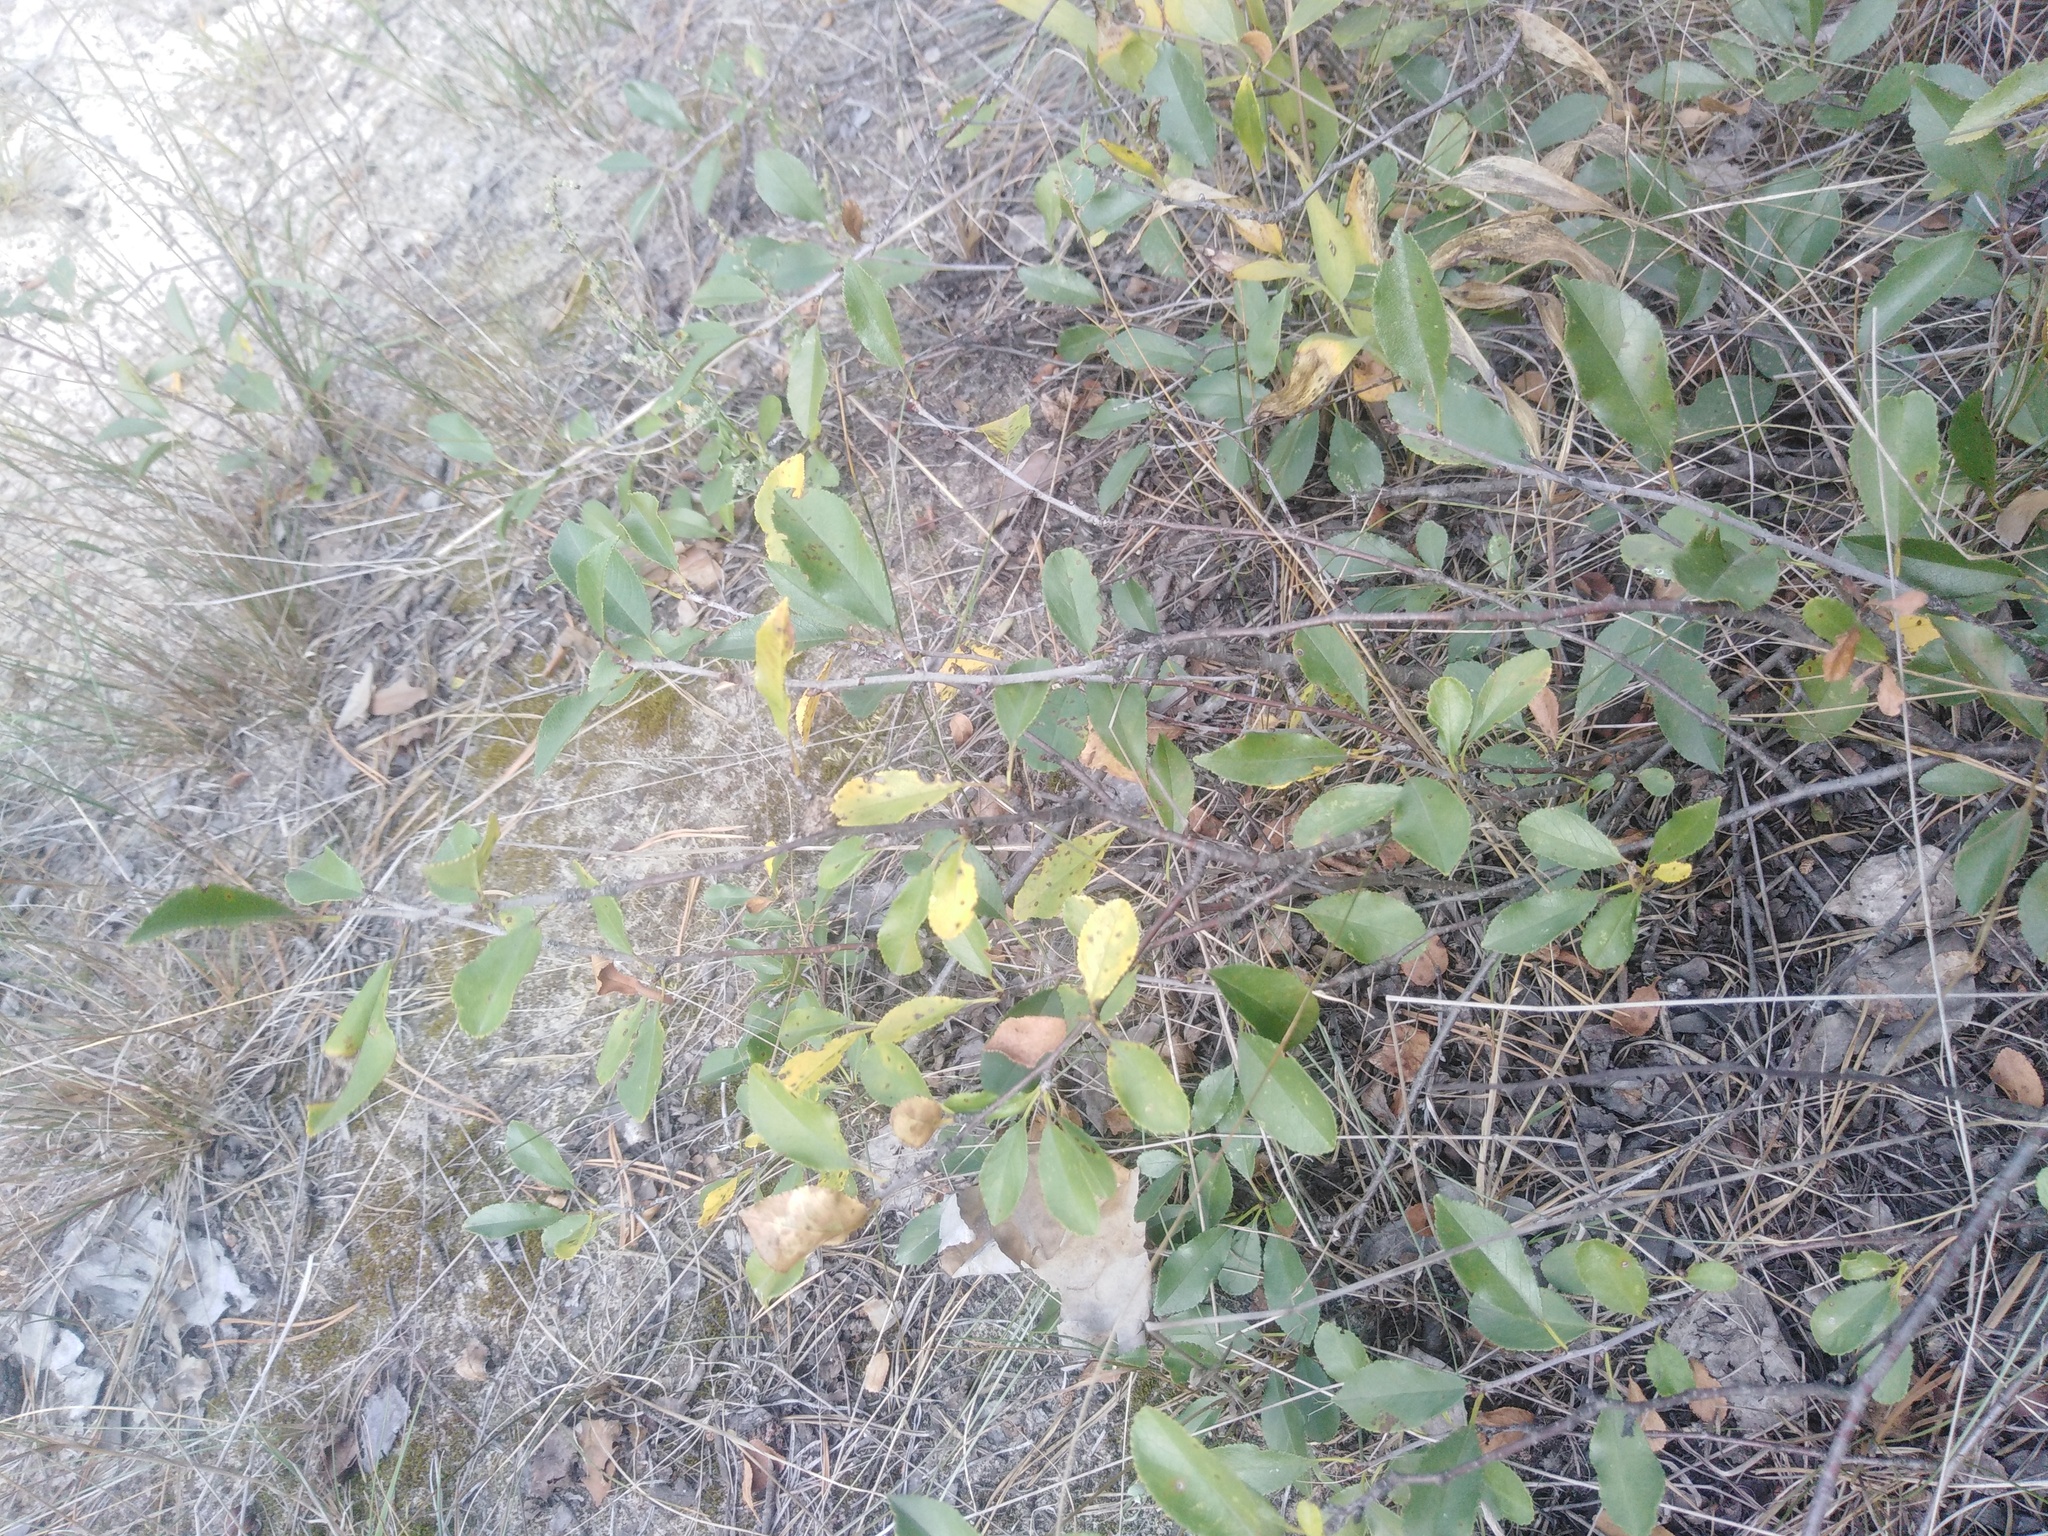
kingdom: Plantae
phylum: Tracheophyta
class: Magnoliopsida
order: Rosales
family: Rosaceae
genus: Prunus
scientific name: Prunus fruticosa
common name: European dwarf cherry
